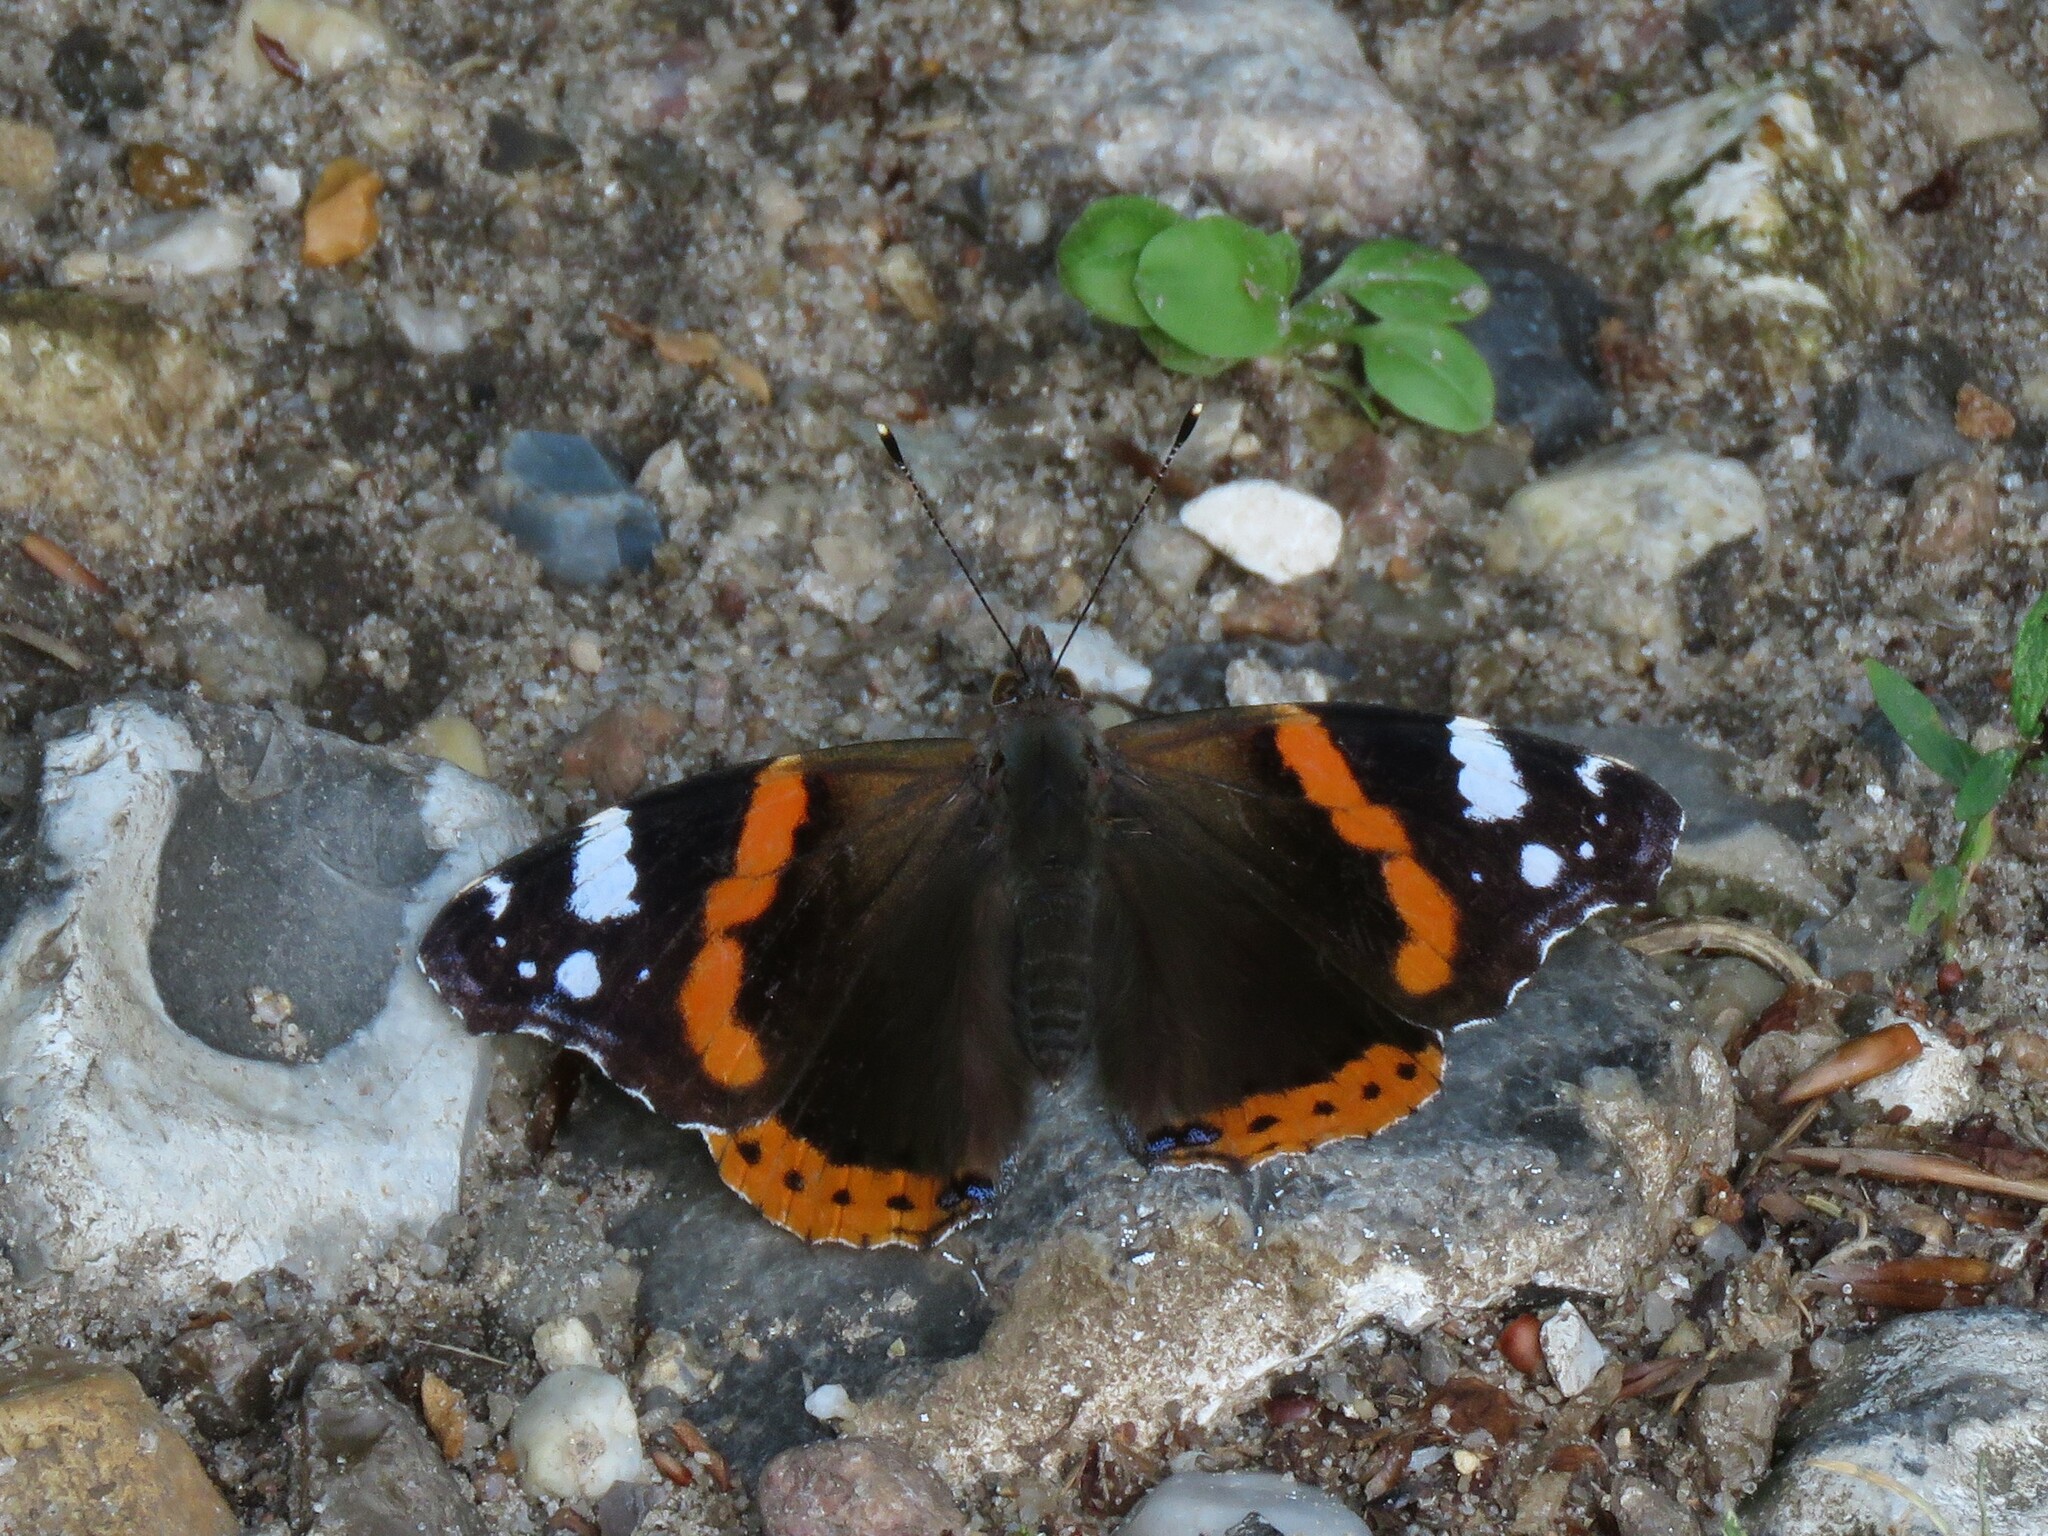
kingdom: Animalia
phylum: Arthropoda
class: Insecta
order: Lepidoptera
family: Nymphalidae
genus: Vanessa
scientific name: Vanessa atalanta
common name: Red admiral
